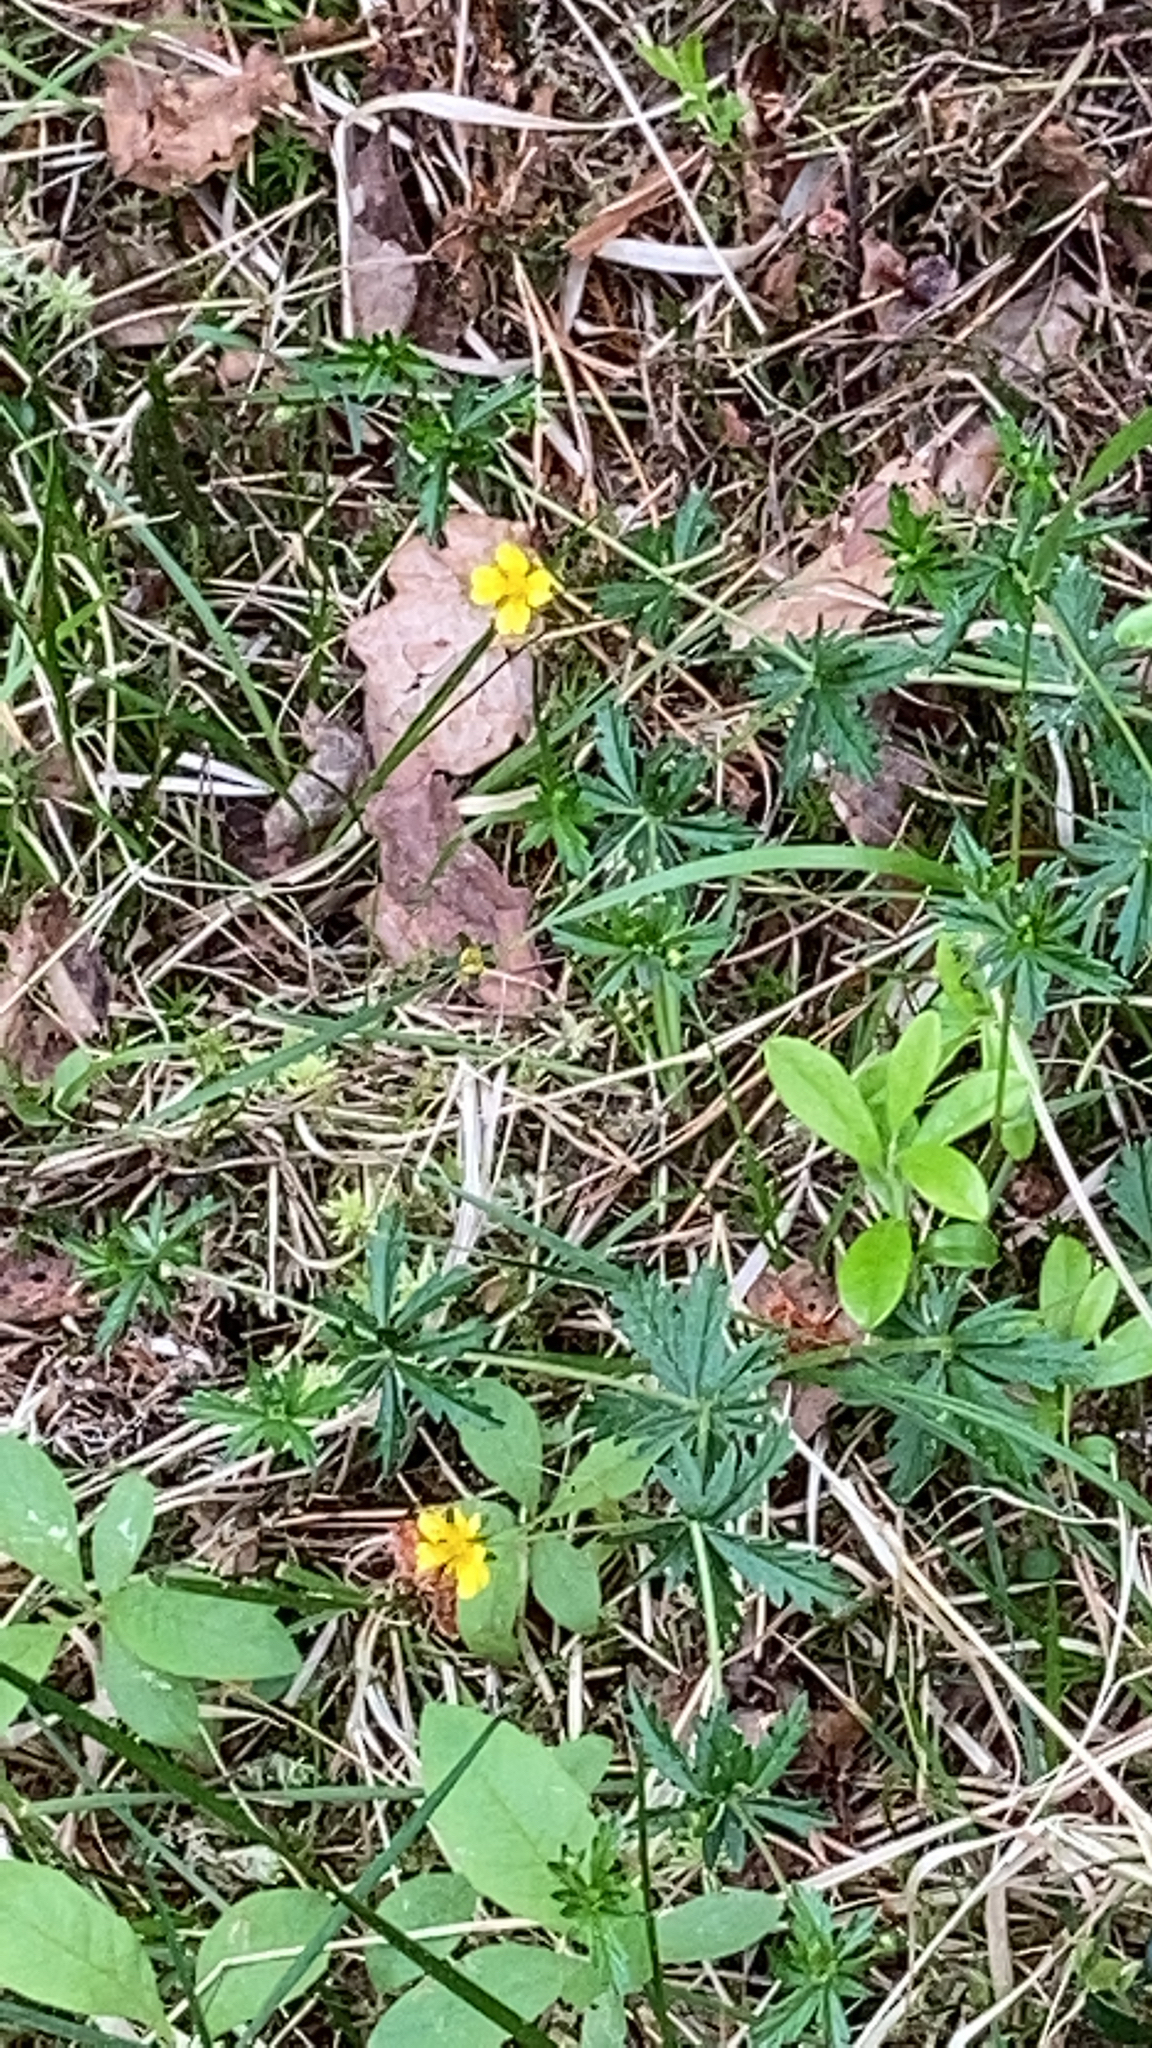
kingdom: Plantae
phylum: Tracheophyta
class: Magnoliopsida
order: Rosales
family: Rosaceae
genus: Potentilla
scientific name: Potentilla erecta
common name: Tormentil
